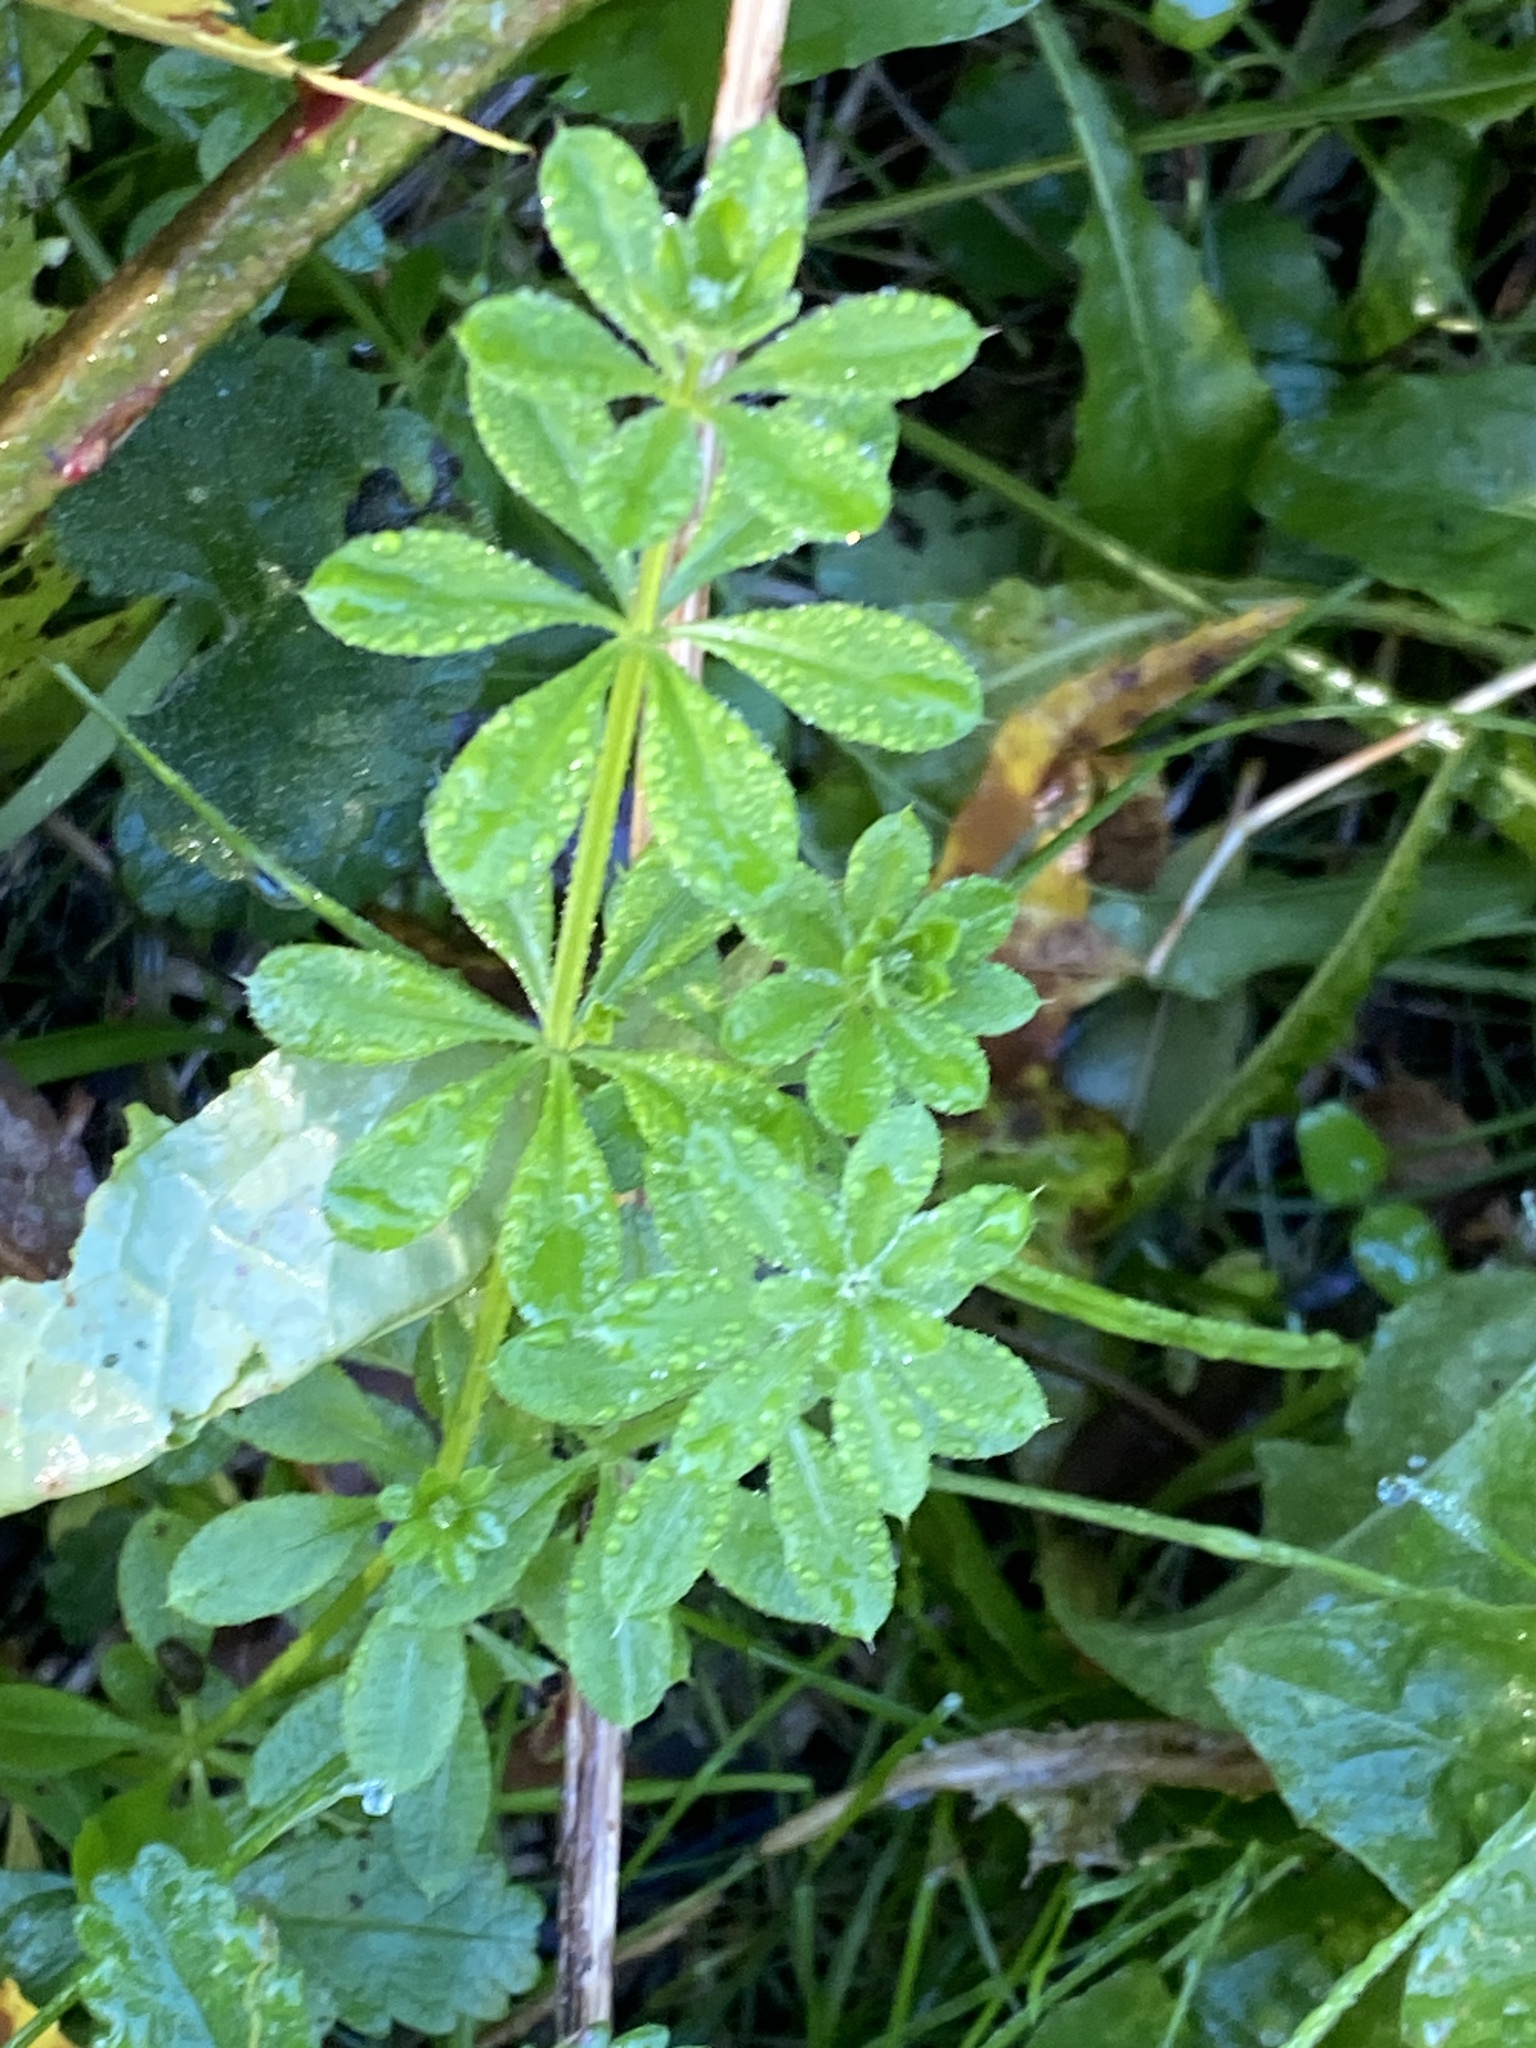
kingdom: Plantae
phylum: Tracheophyta
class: Magnoliopsida
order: Gentianales
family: Rubiaceae
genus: Galium
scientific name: Galium aparine
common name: Cleavers
